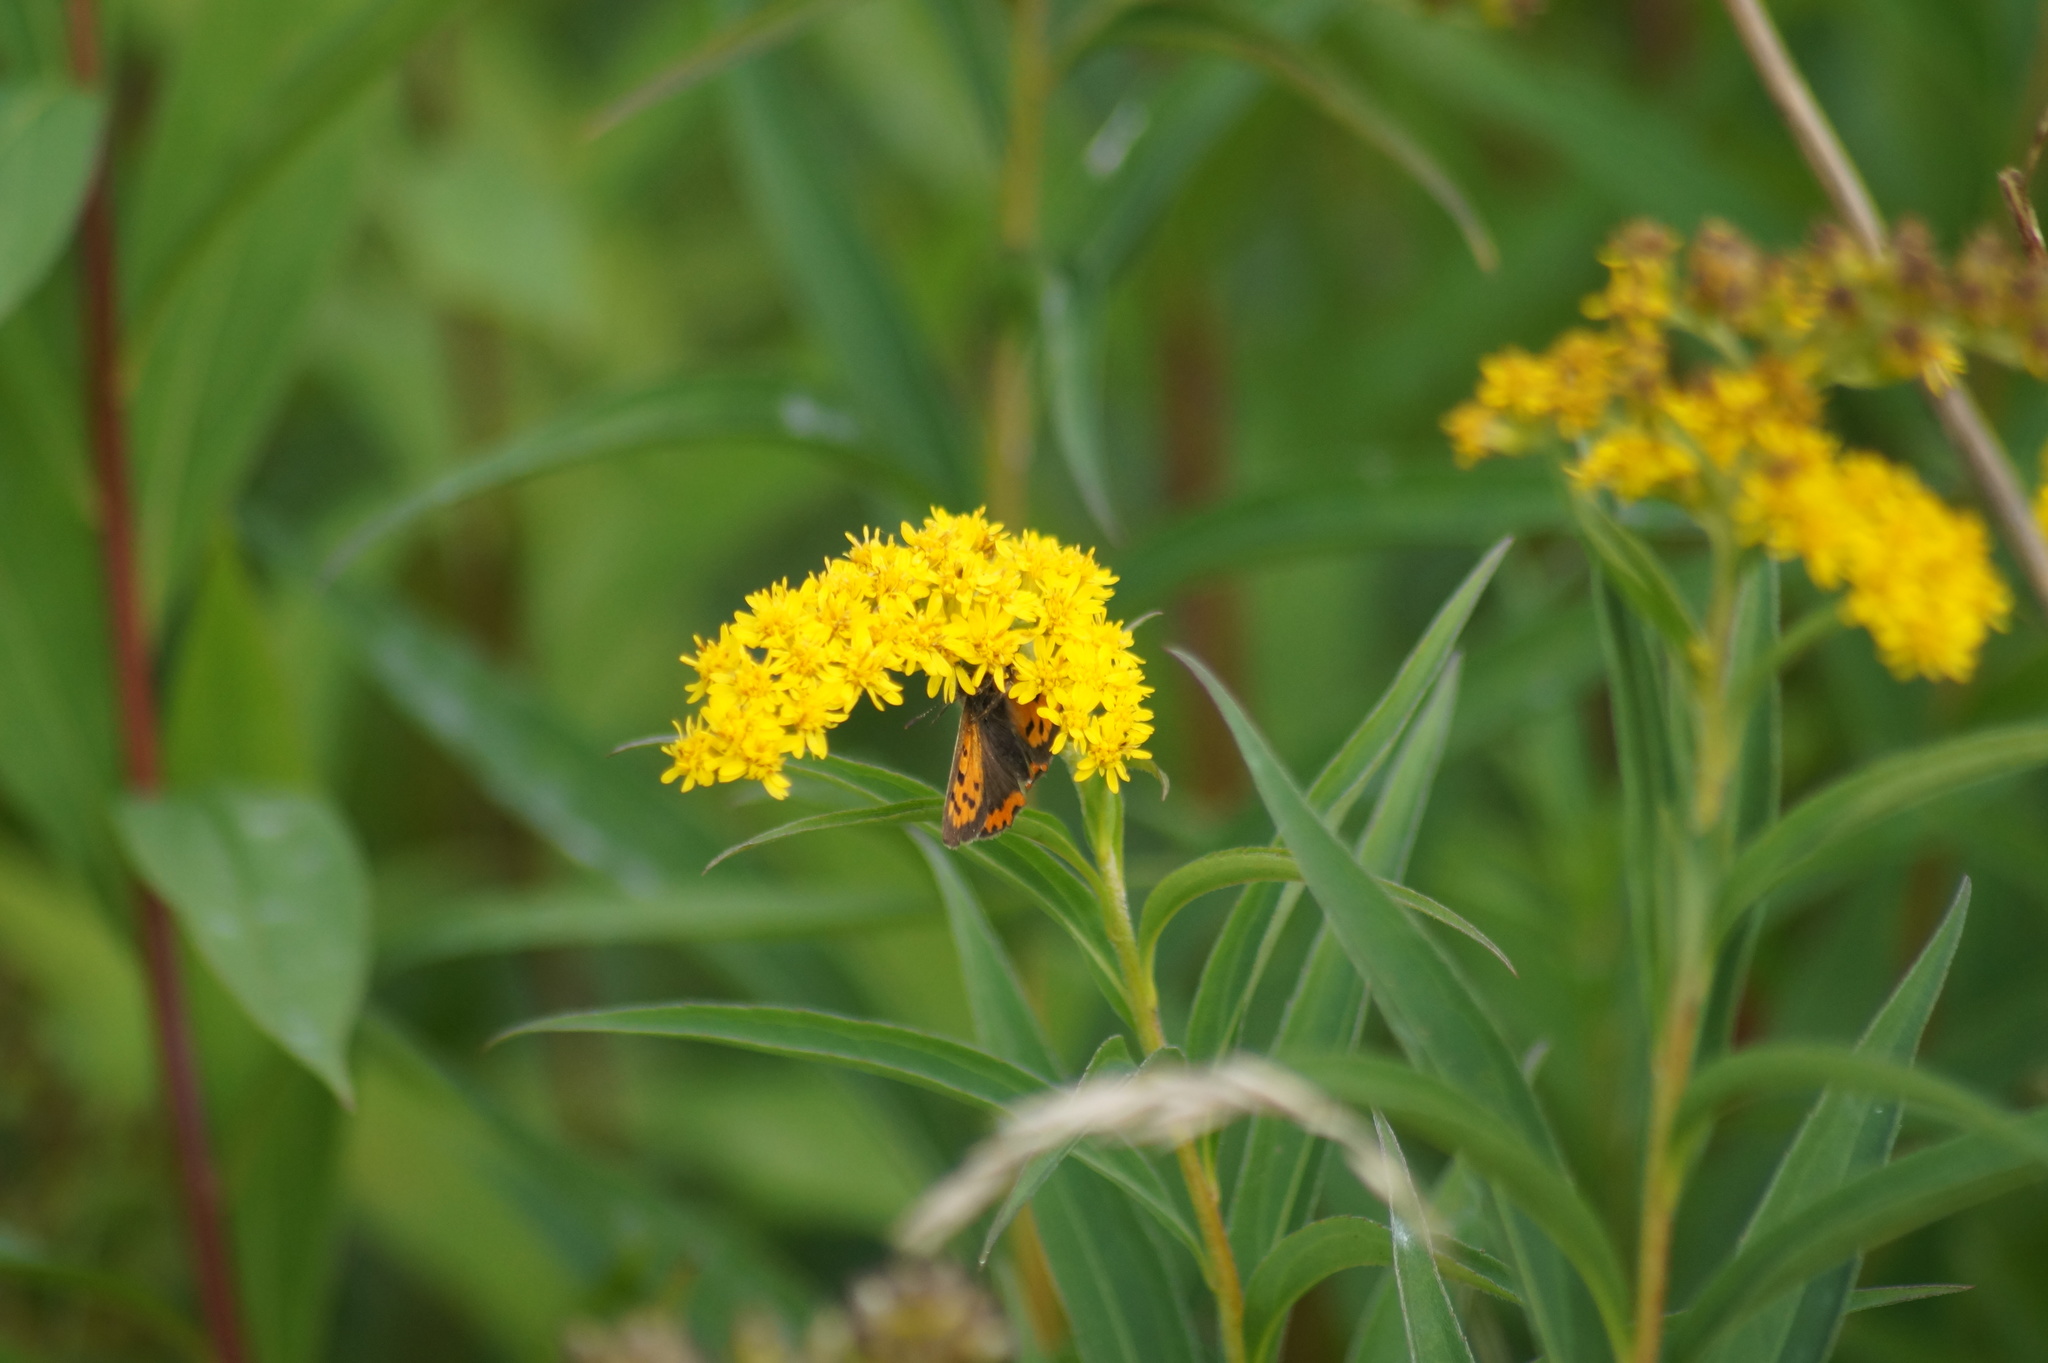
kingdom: Animalia
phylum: Arthropoda
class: Insecta
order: Lepidoptera
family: Lycaenidae
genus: Lycaena
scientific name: Lycaena phlaeas
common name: Small copper
